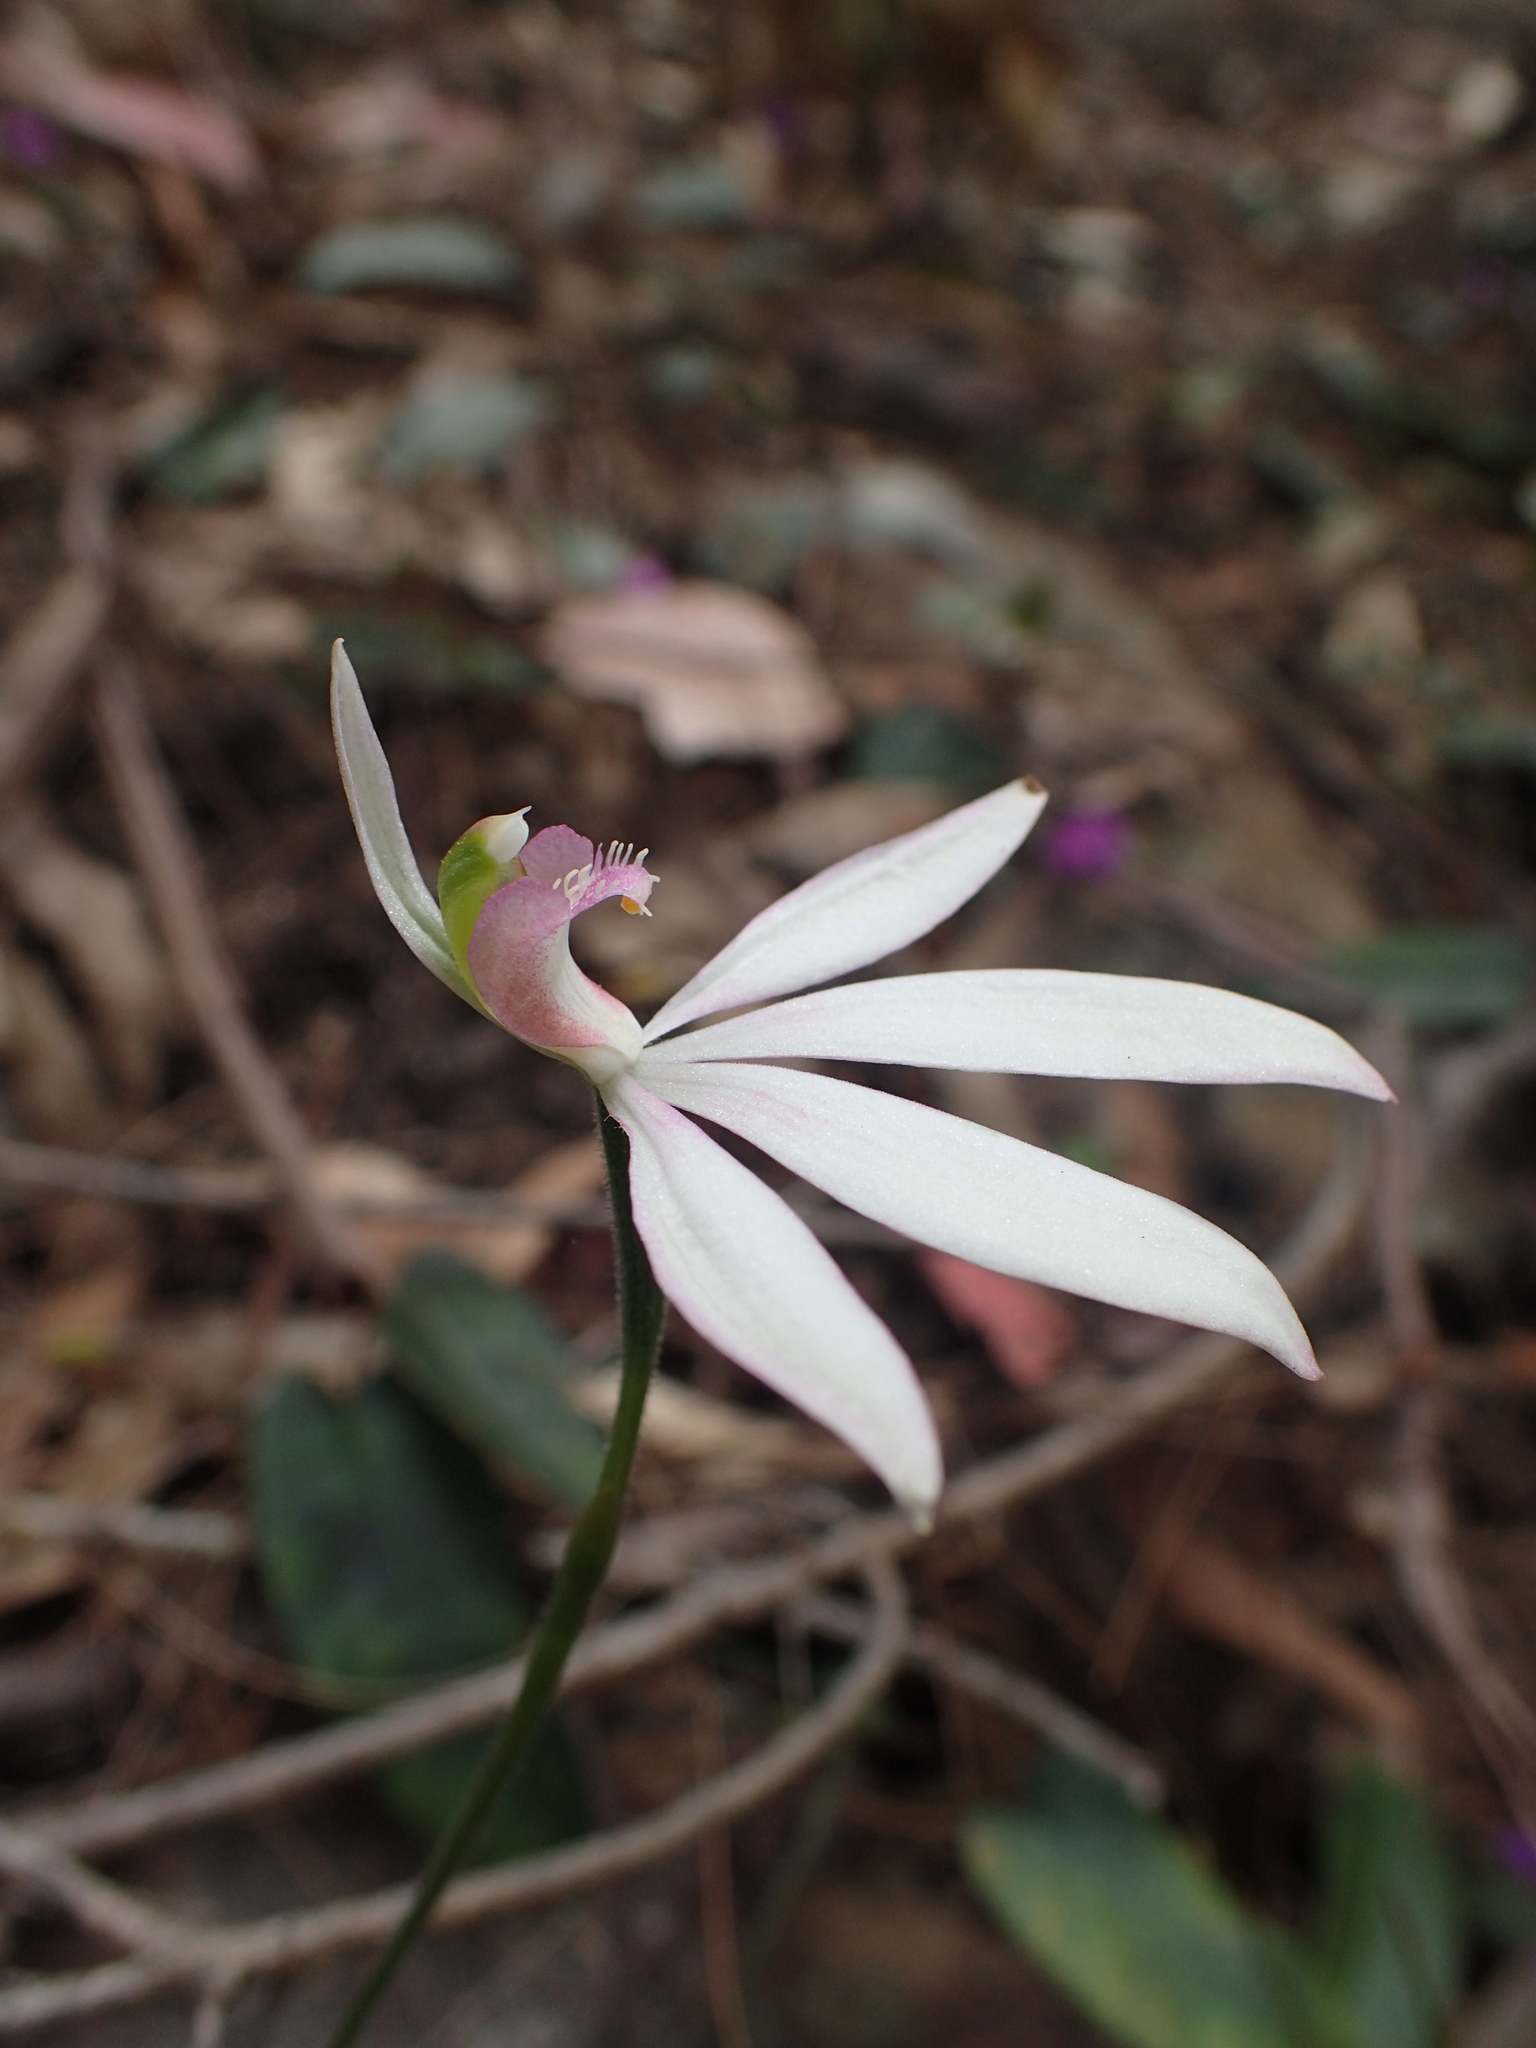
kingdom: Plantae
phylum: Tracheophyta
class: Liliopsida
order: Asparagales
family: Orchidaceae
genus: Caladenia
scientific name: Caladenia catenata
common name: White caladenia
